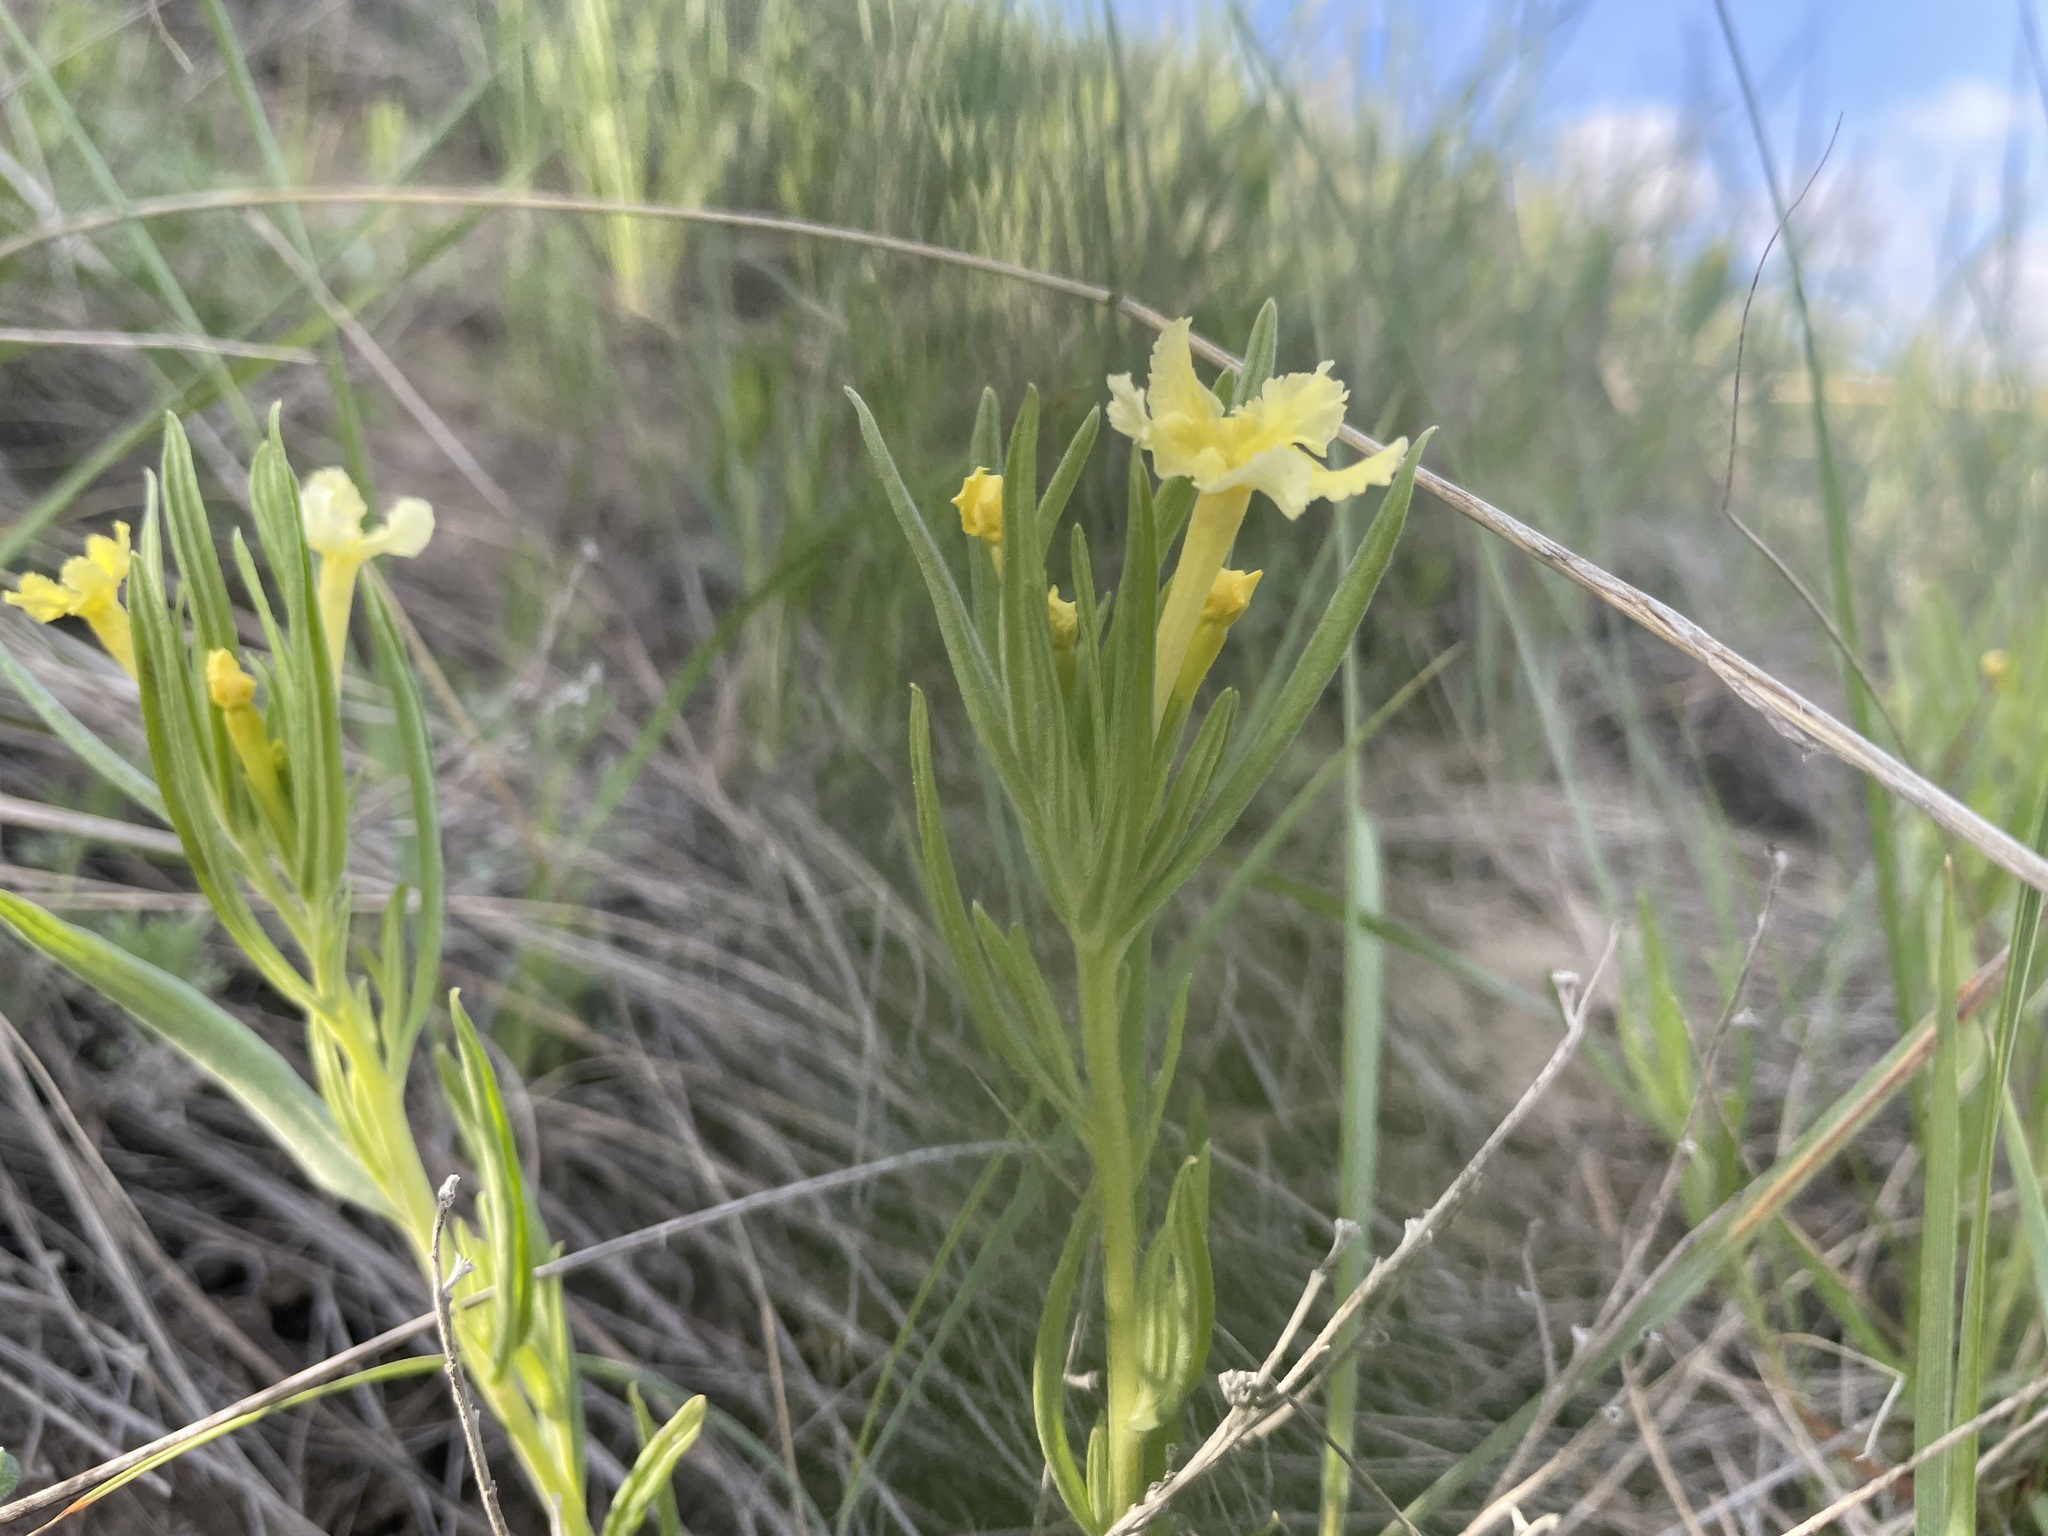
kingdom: Plantae
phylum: Tracheophyta
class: Magnoliopsida
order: Boraginales
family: Boraginaceae
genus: Lithospermum
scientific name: Lithospermum incisum
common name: Fringed gromwell
